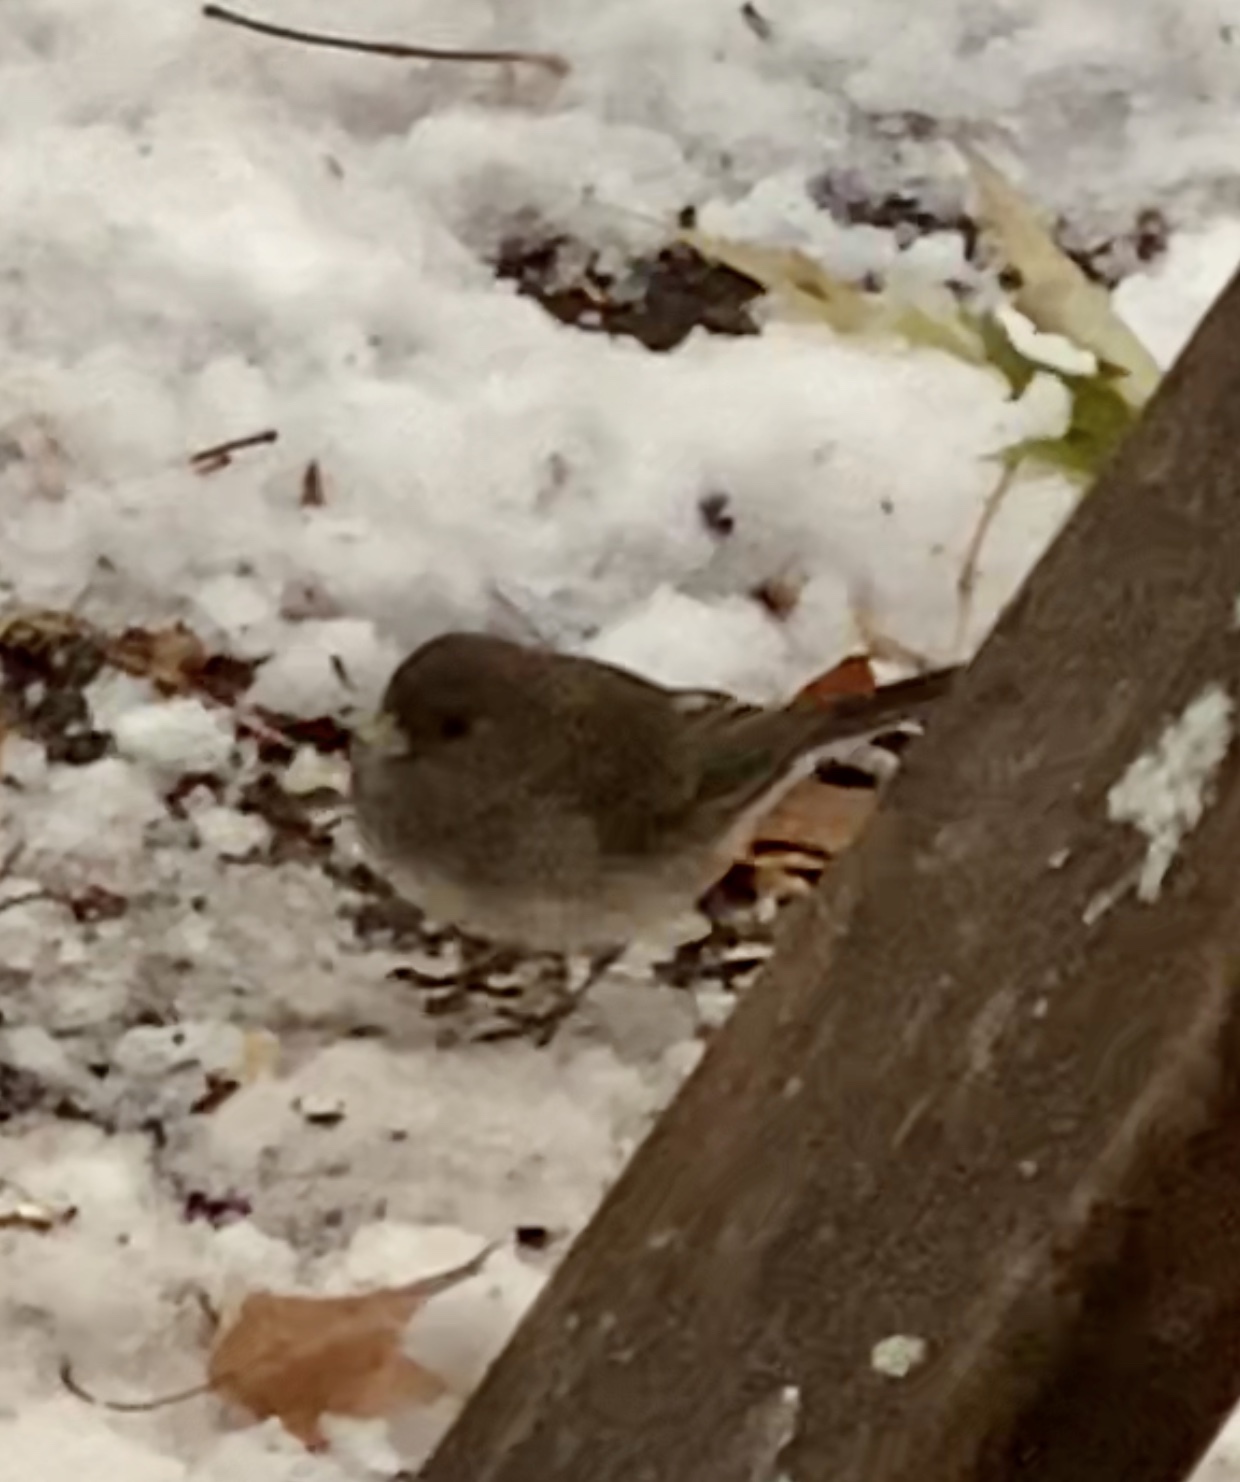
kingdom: Animalia
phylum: Chordata
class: Aves
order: Passeriformes
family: Passerellidae
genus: Junco
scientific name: Junco hyemalis
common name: Dark-eyed junco
